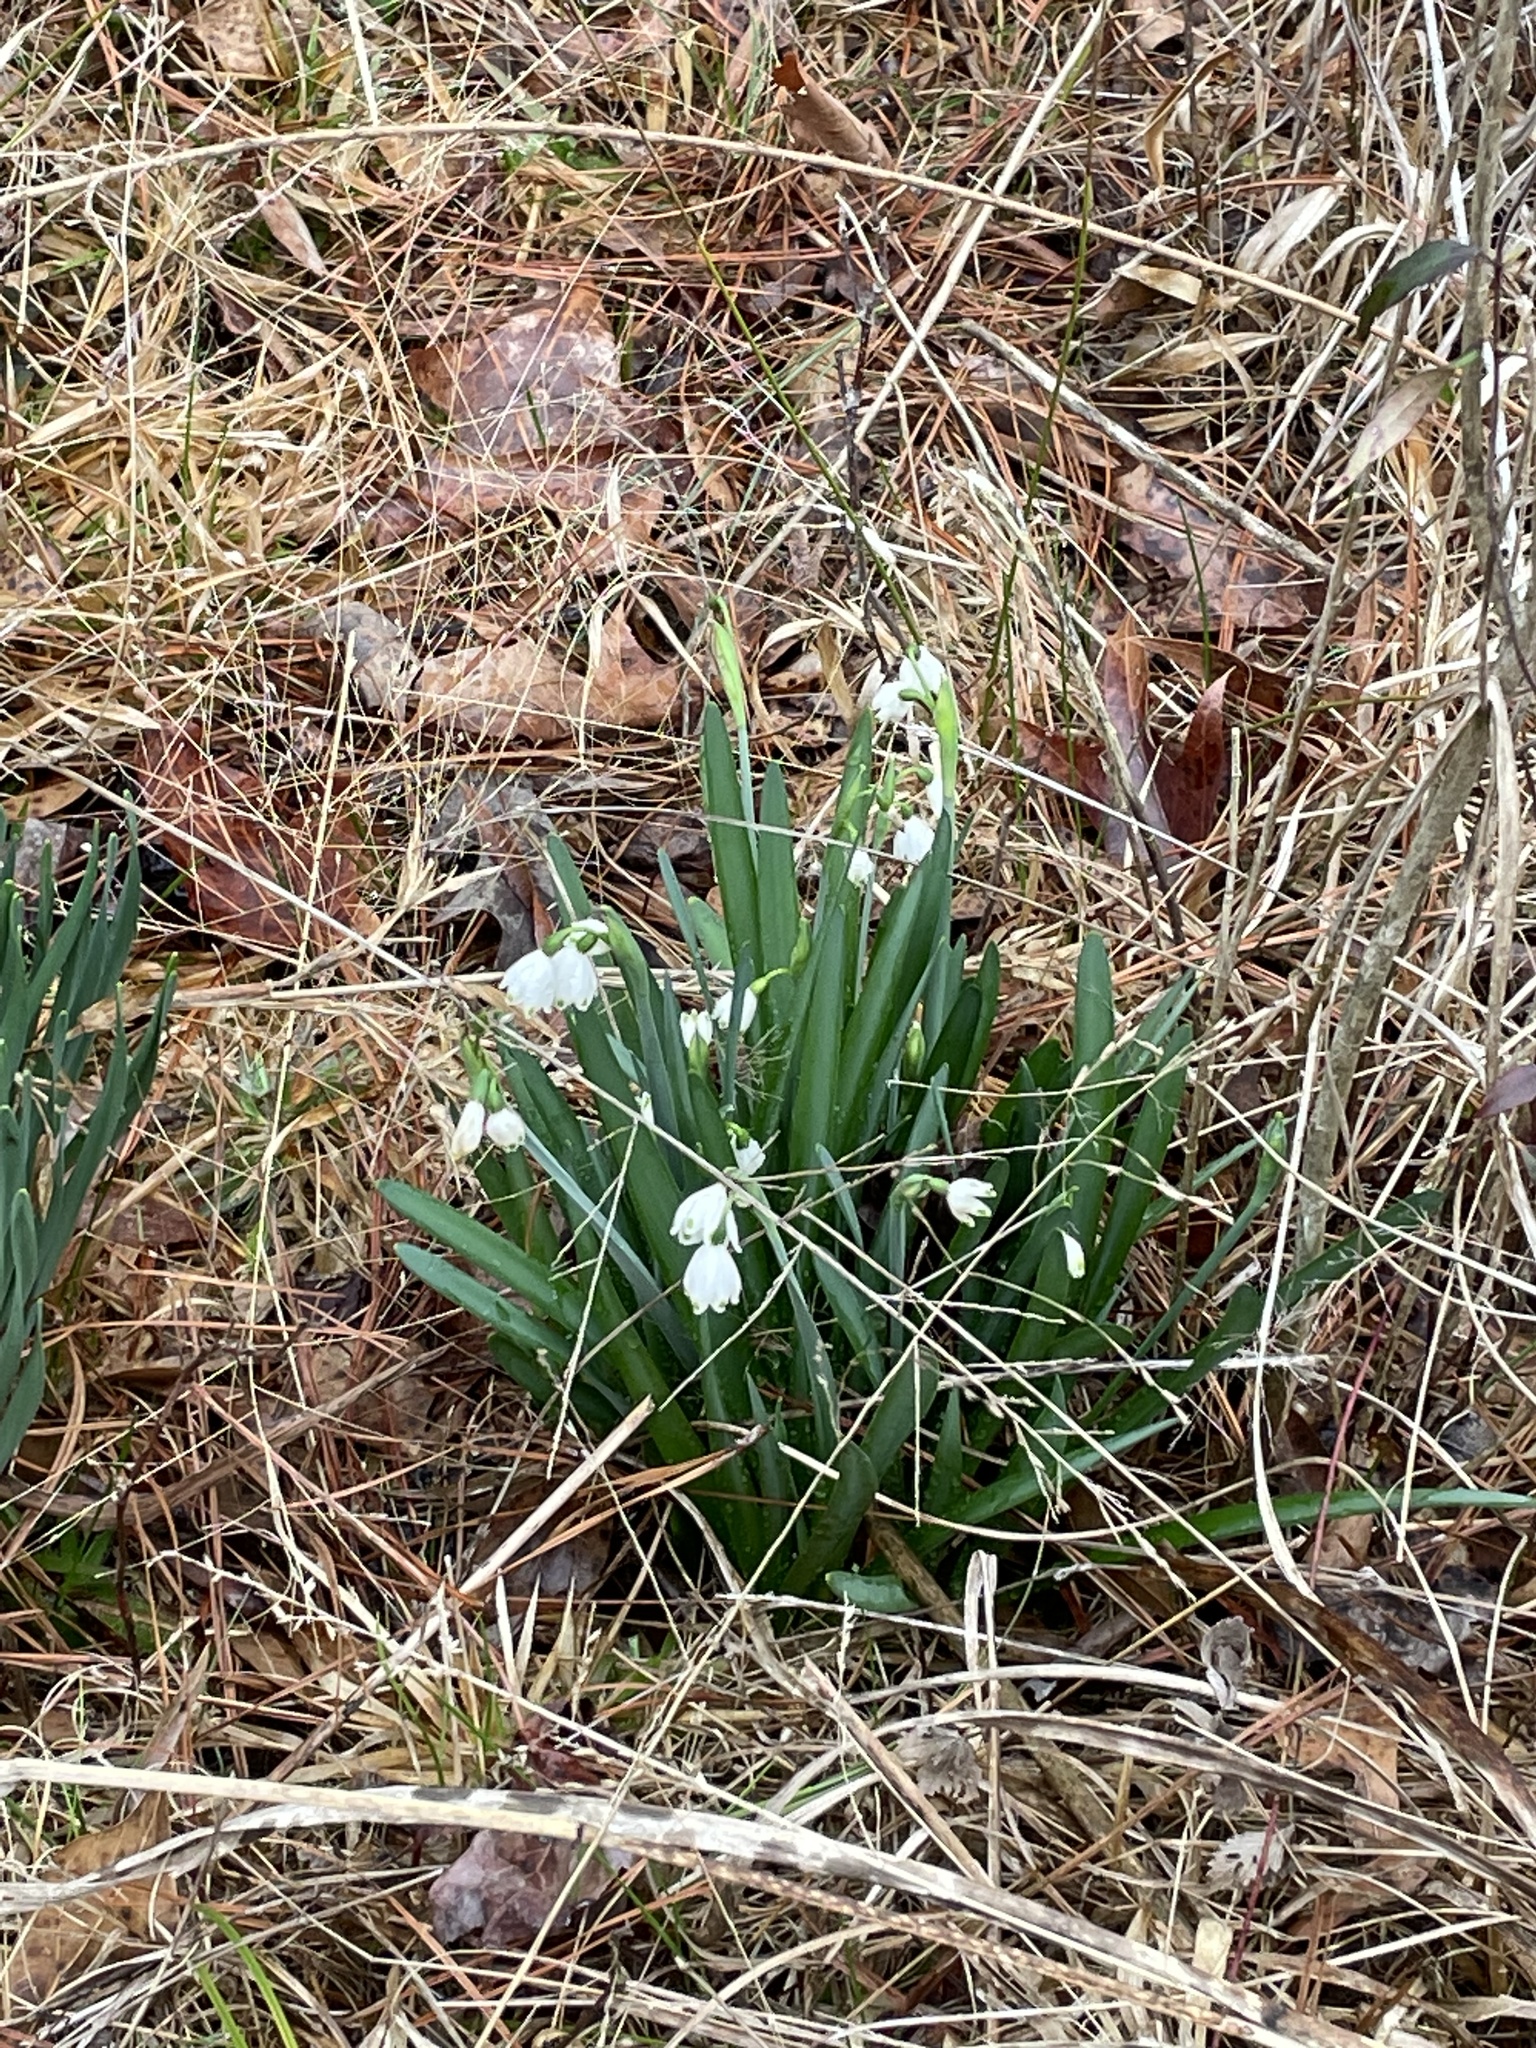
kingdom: Plantae
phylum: Tracheophyta
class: Liliopsida
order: Asparagales
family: Amaryllidaceae
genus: Leucojum
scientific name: Leucojum aestivum
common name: Summer snowflake
